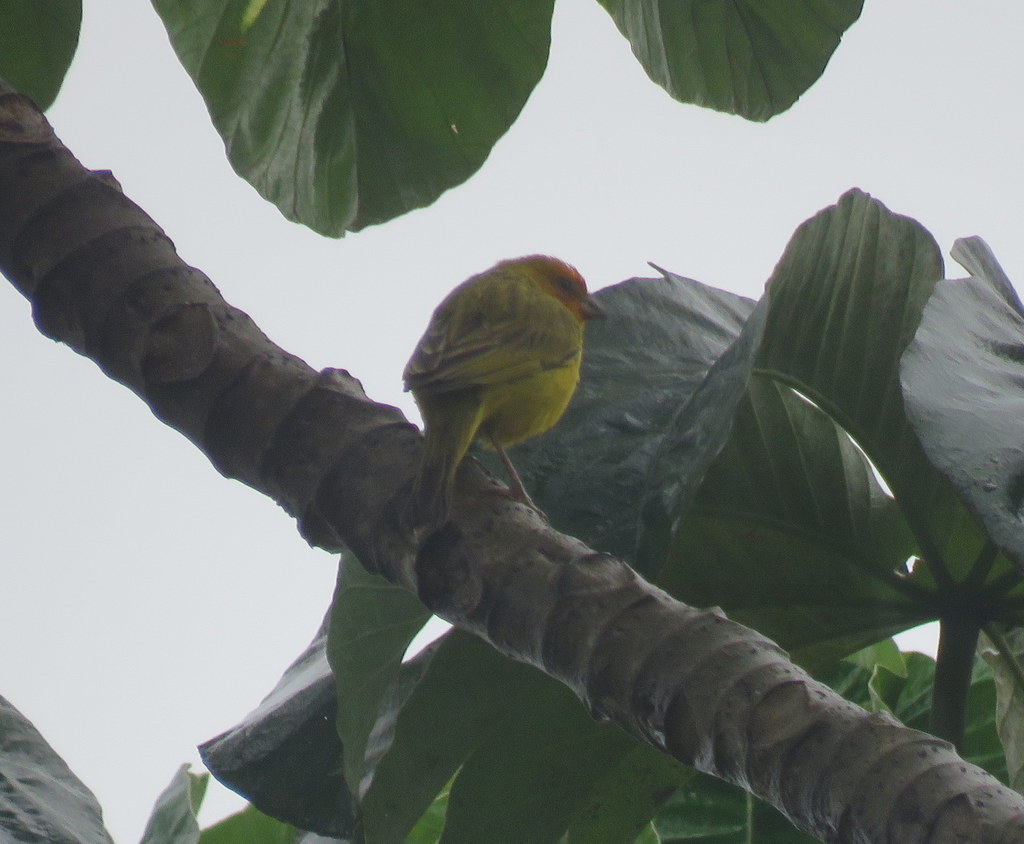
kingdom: Animalia
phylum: Chordata
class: Aves
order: Passeriformes
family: Thraupidae
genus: Sicalis
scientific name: Sicalis flaveola
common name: Saffron finch
